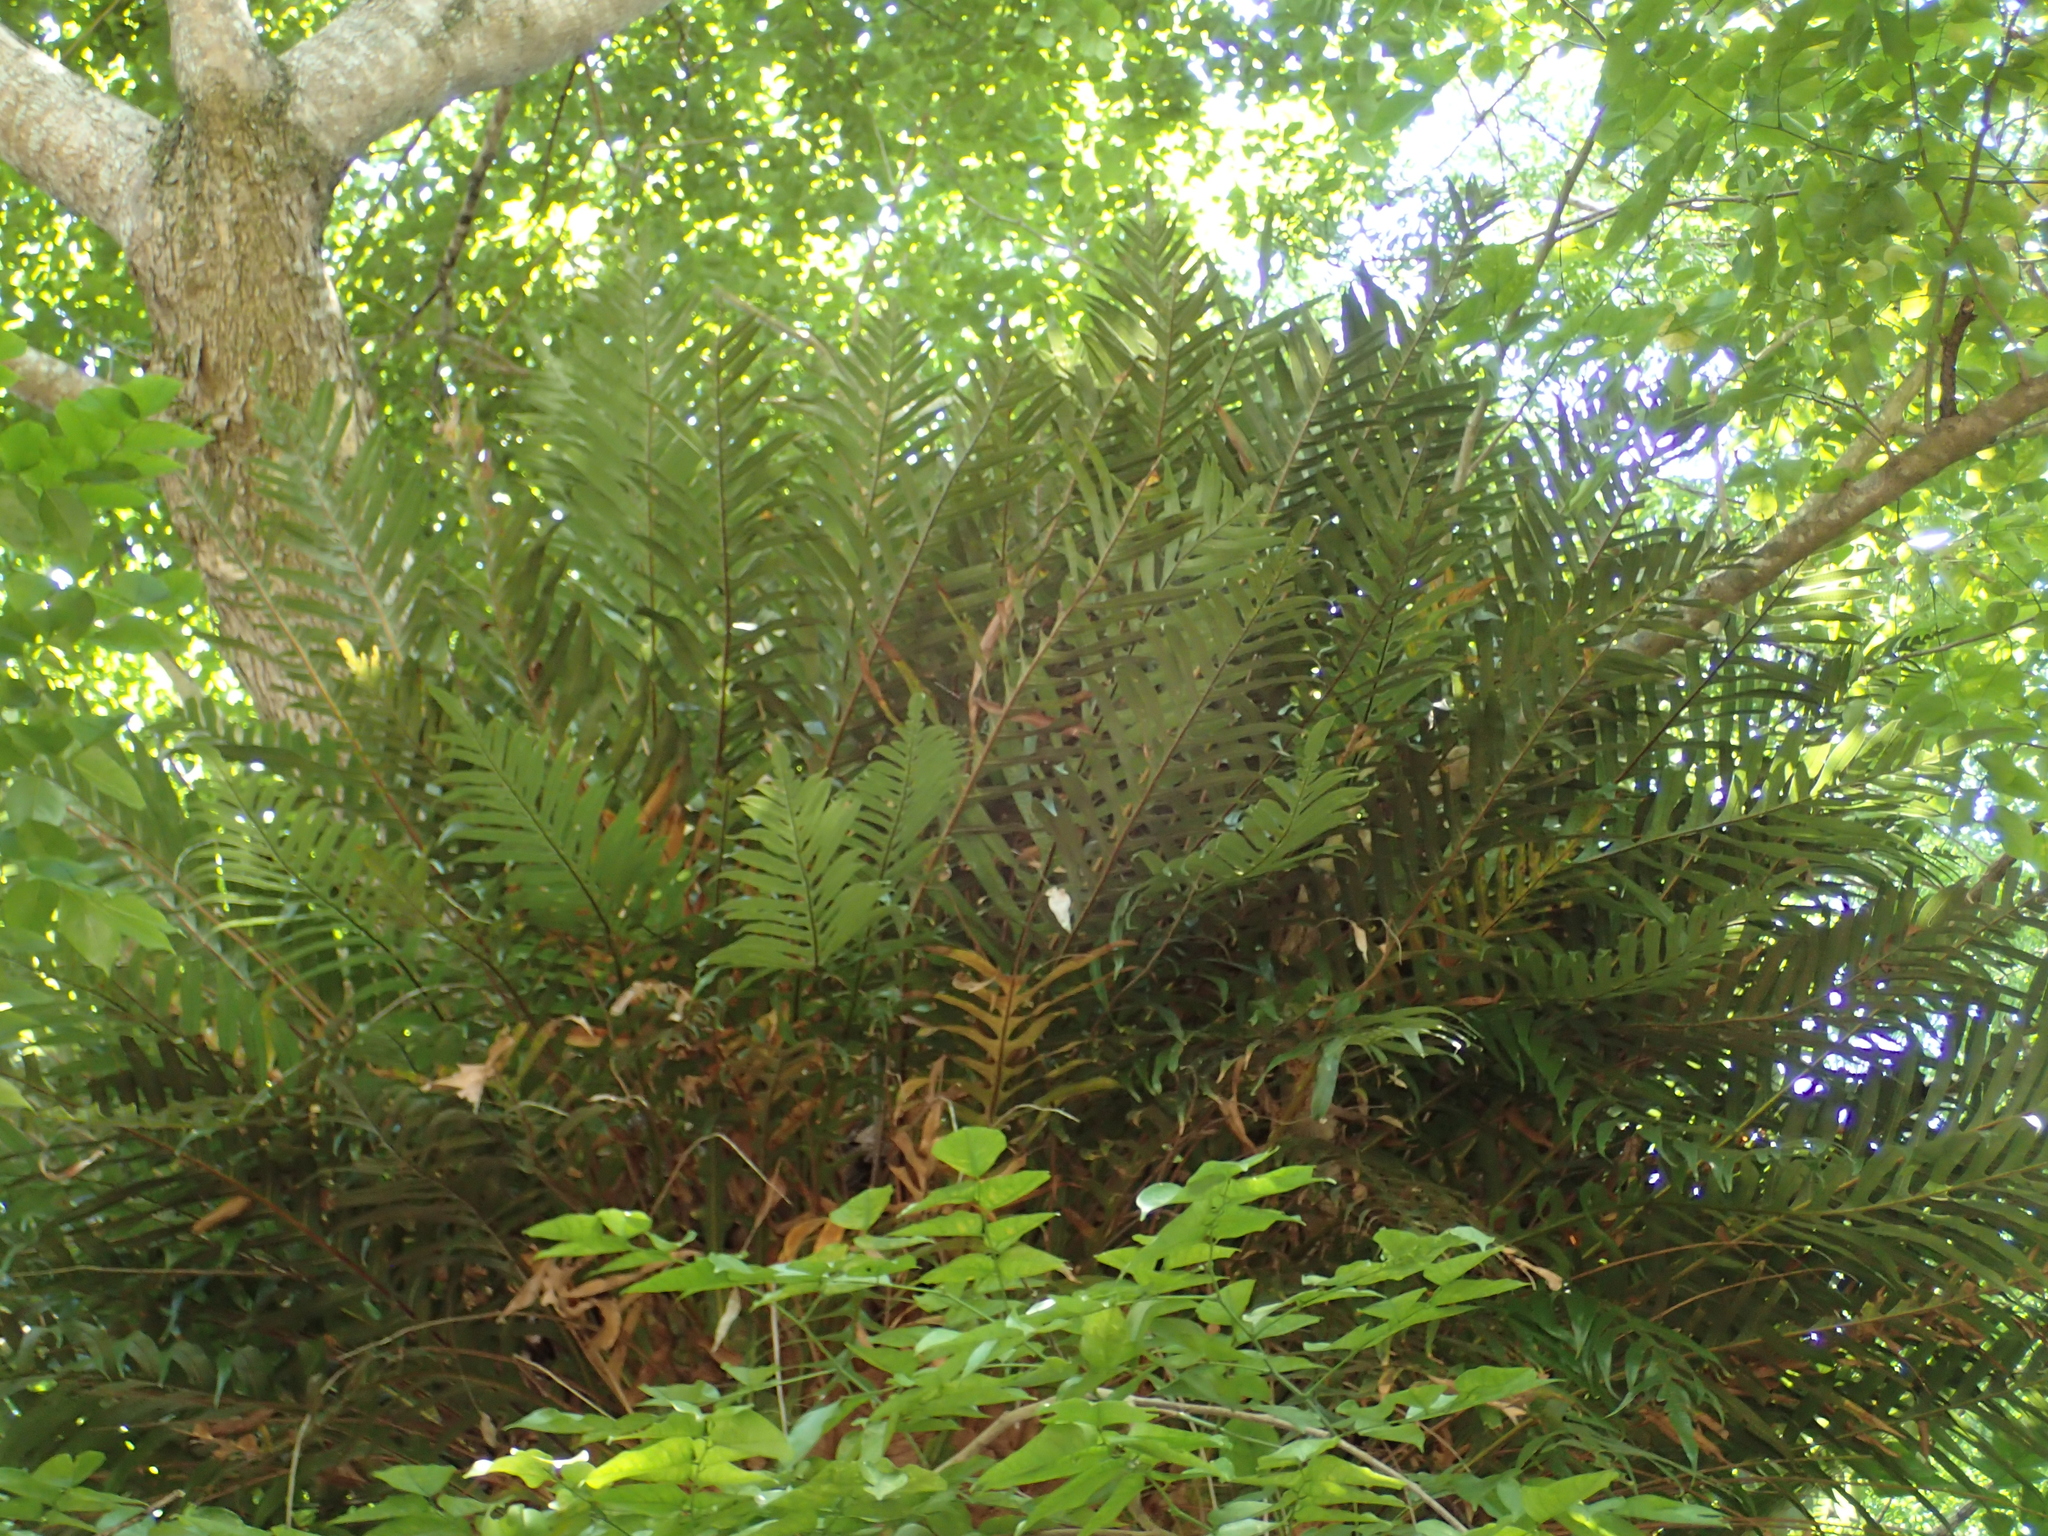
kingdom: Plantae
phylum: Tracheophyta
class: Polypodiopsida
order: Polypodiales
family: Polypodiaceae
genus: Drynaria
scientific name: Drynaria coronans
